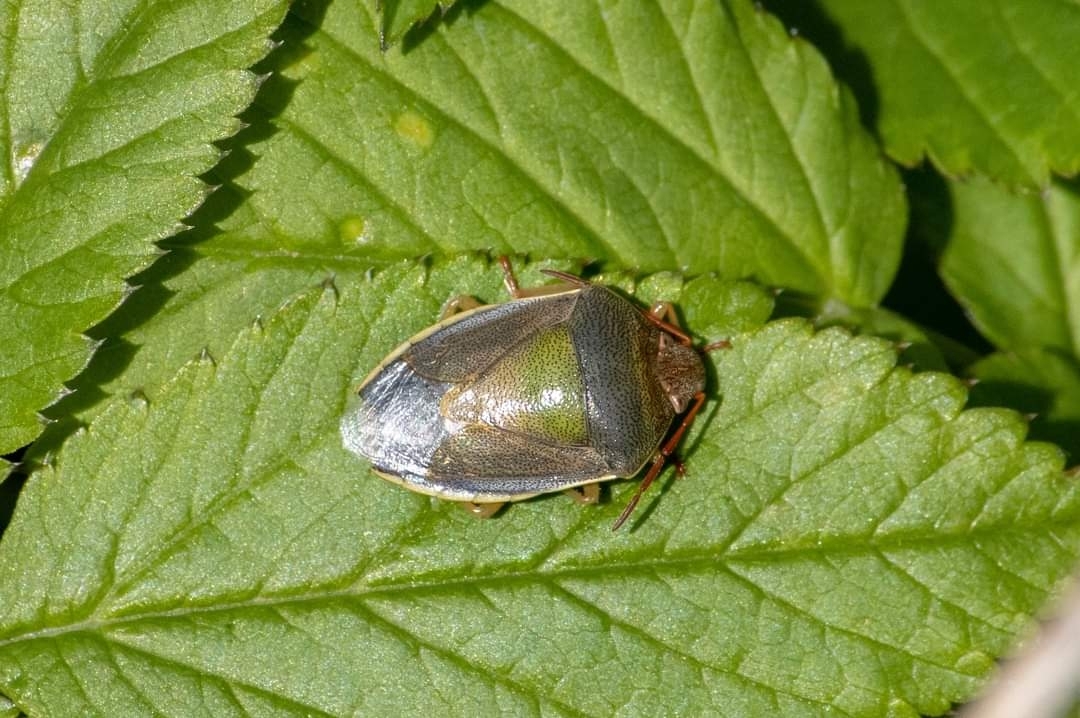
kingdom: Animalia
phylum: Arthropoda
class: Insecta
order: Hemiptera
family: Pentatomidae
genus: Piezodorus
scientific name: Piezodorus lituratus
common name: Stink bug
